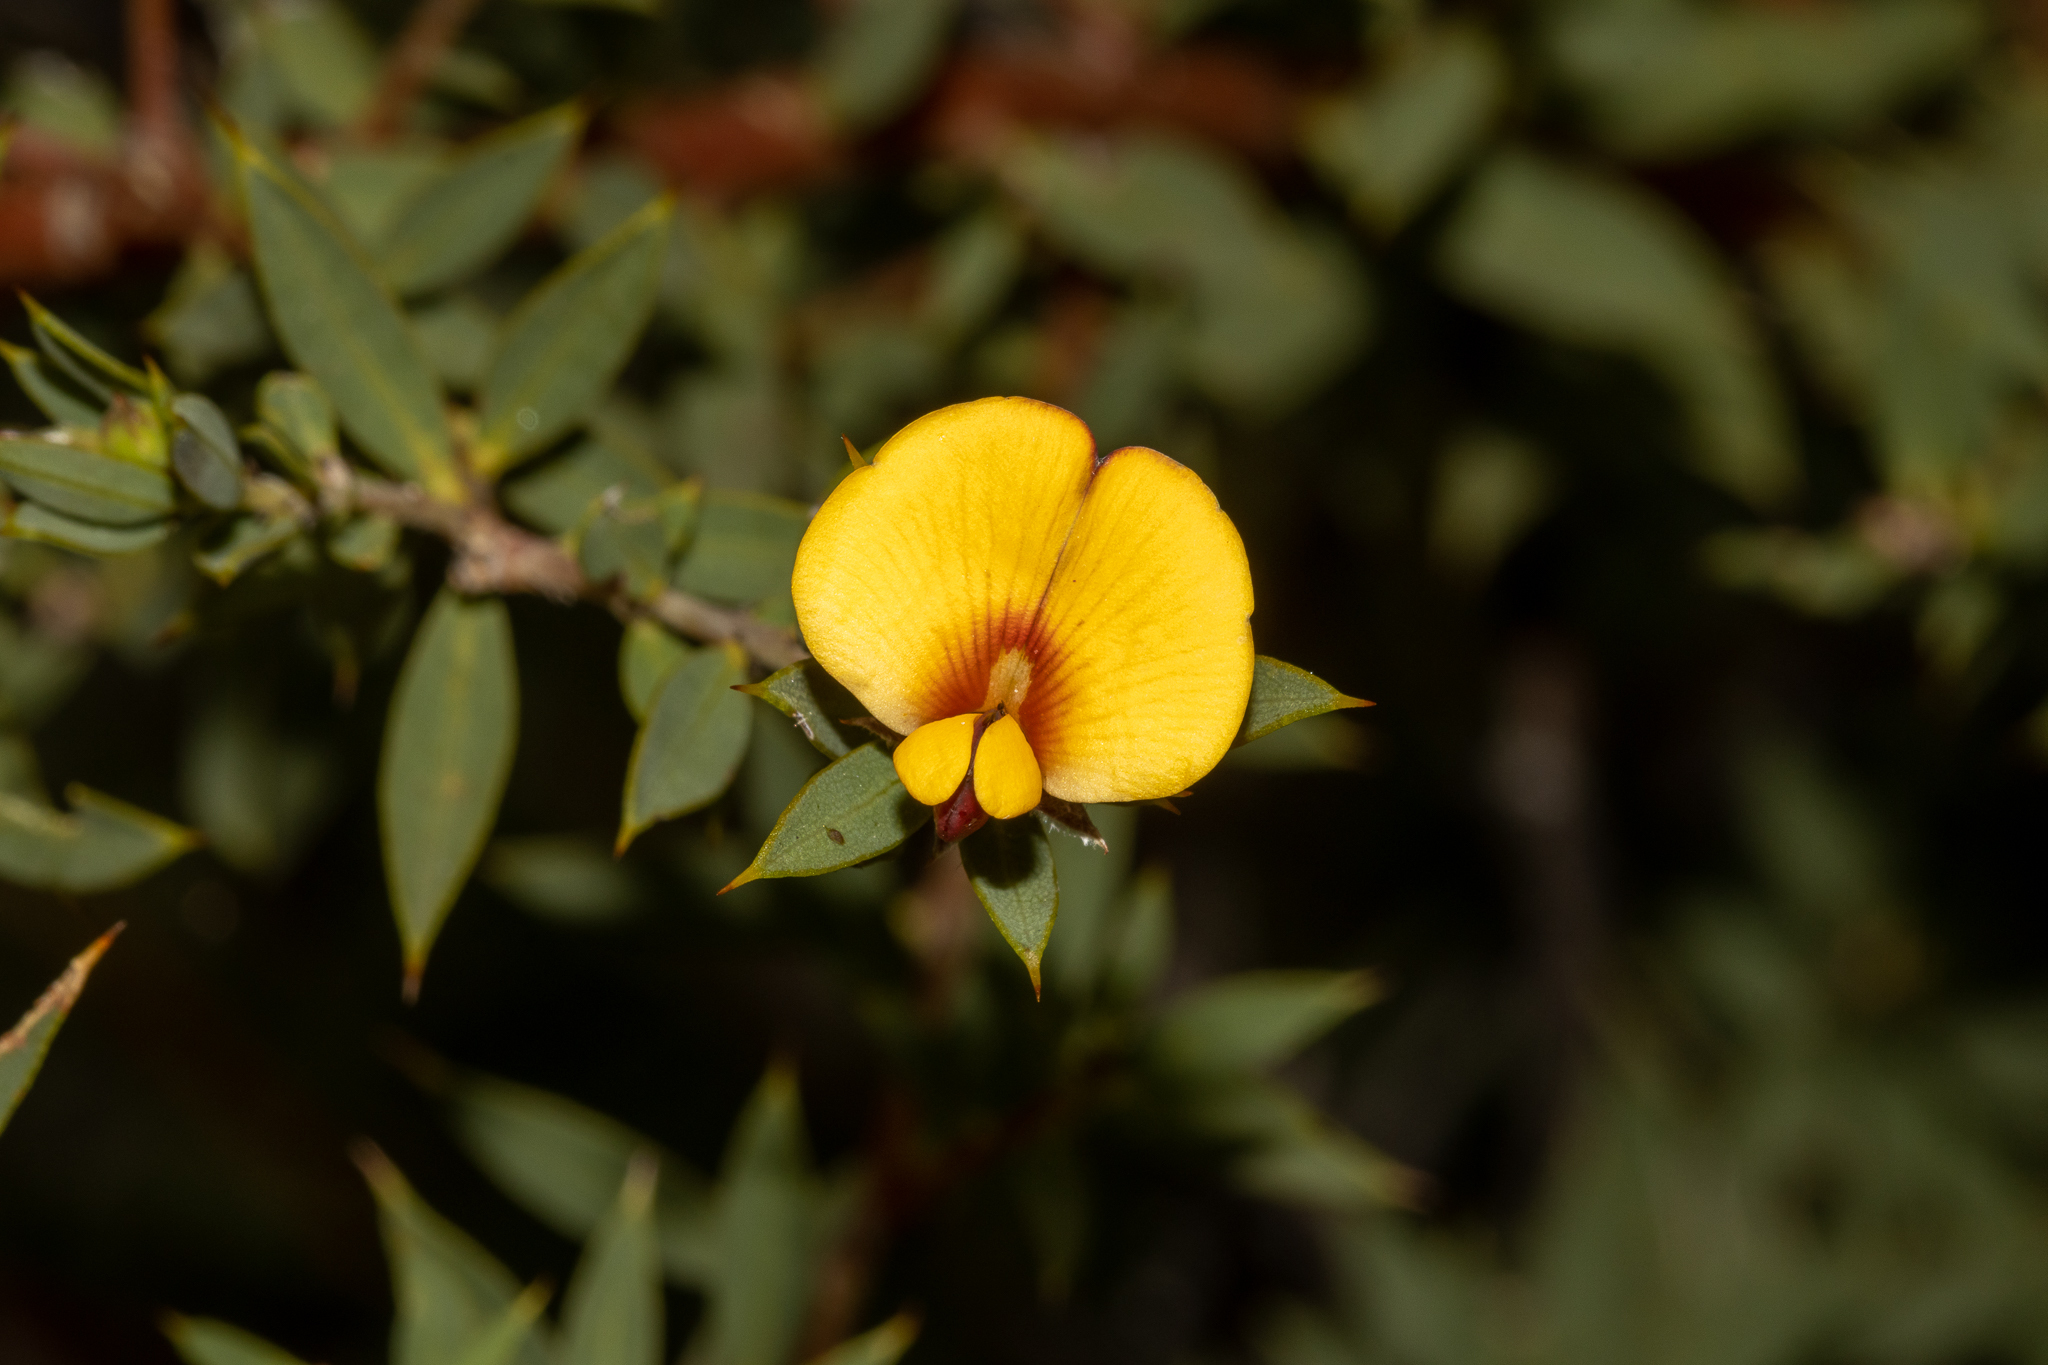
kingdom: Plantae
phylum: Tracheophyta
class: Magnoliopsida
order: Fabales
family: Fabaceae
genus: Pultenaea
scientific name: Pultenaea reticulata
